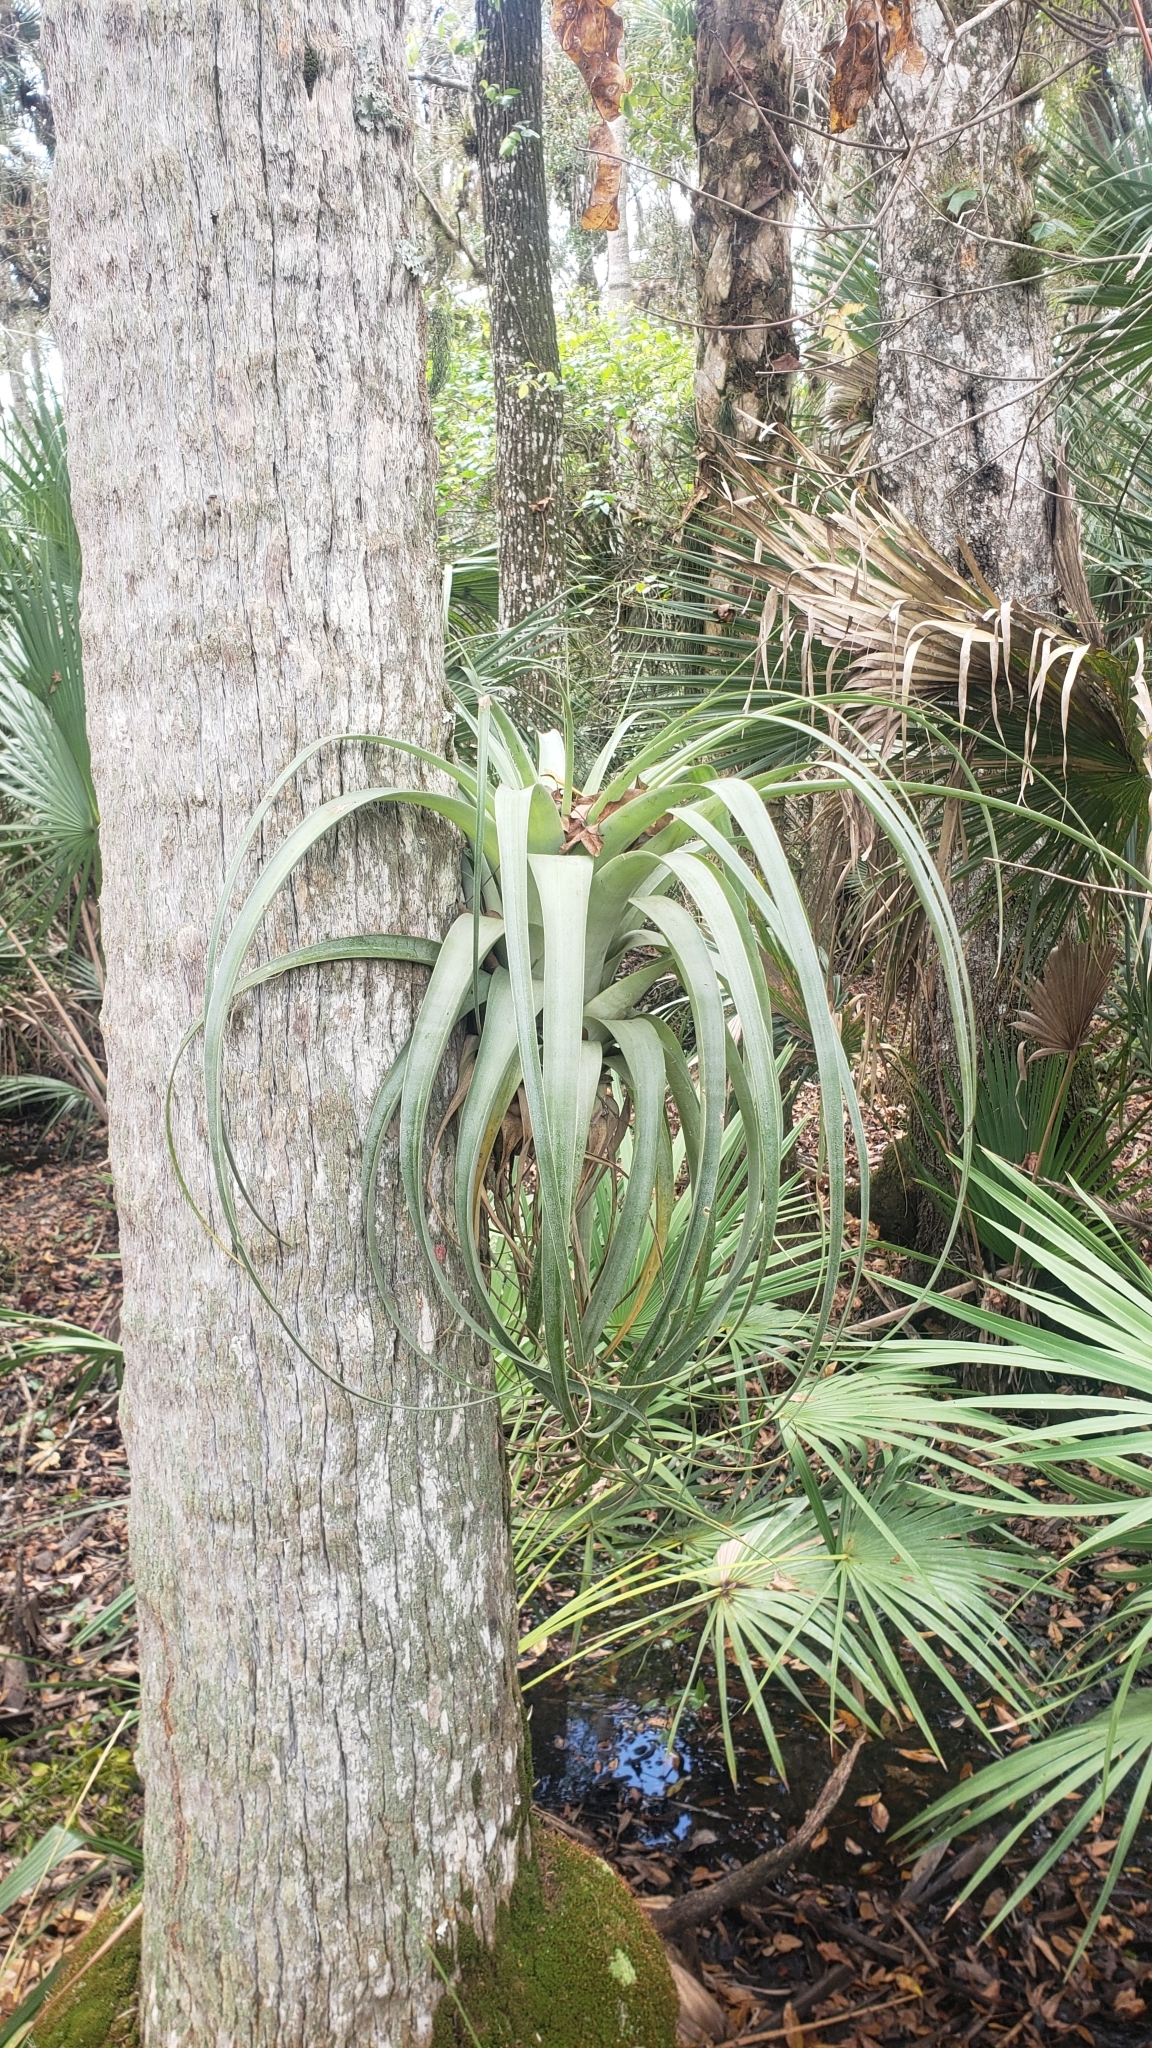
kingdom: Plantae
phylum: Tracheophyta
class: Liliopsida
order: Poales
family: Bromeliaceae
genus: Tillandsia
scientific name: Tillandsia utriculata
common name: Wild pine
